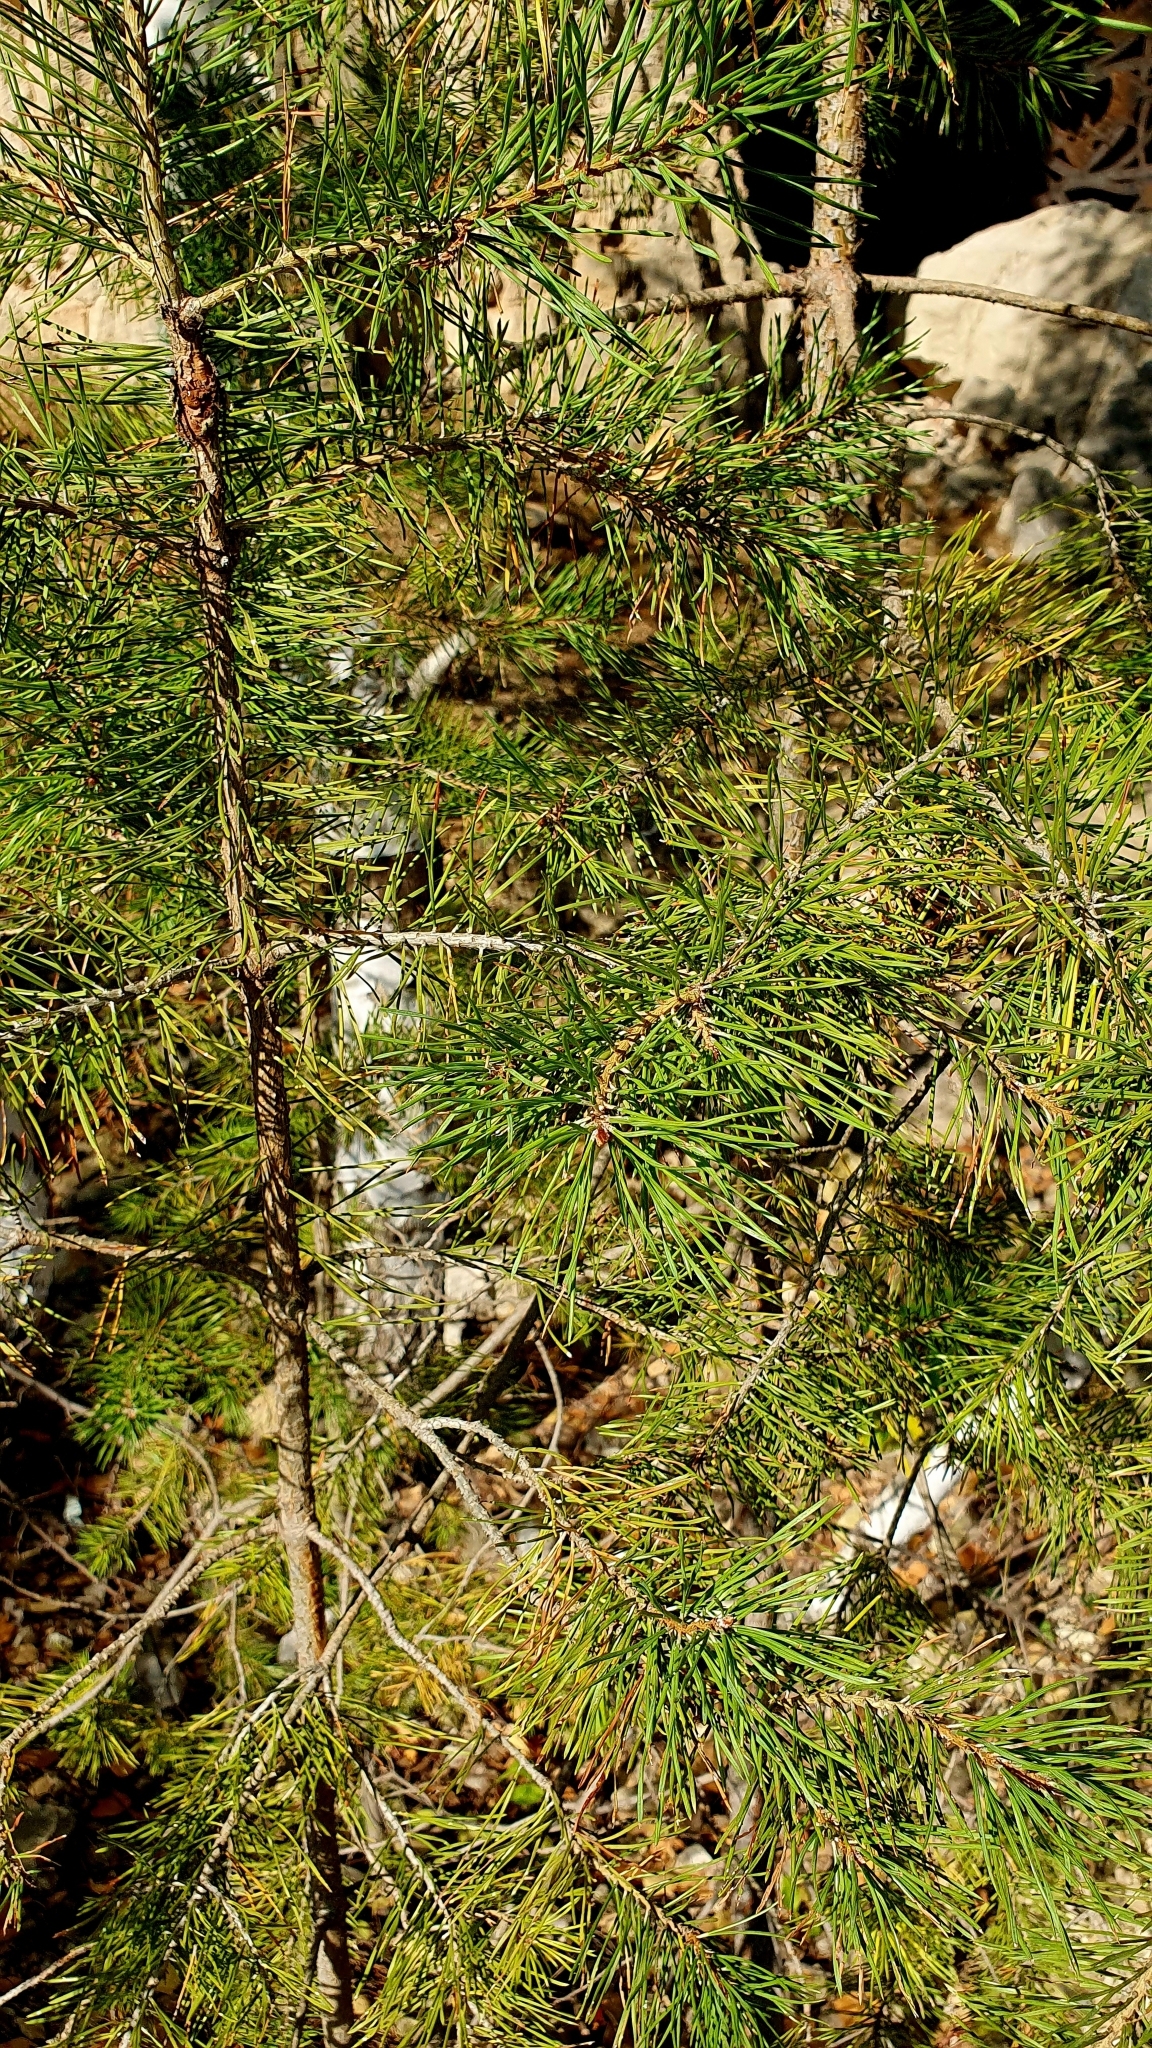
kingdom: Plantae
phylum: Tracheophyta
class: Pinopsida
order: Pinales
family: Pinaceae
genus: Pinus
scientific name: Pinus sylvestris
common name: Scots pine
